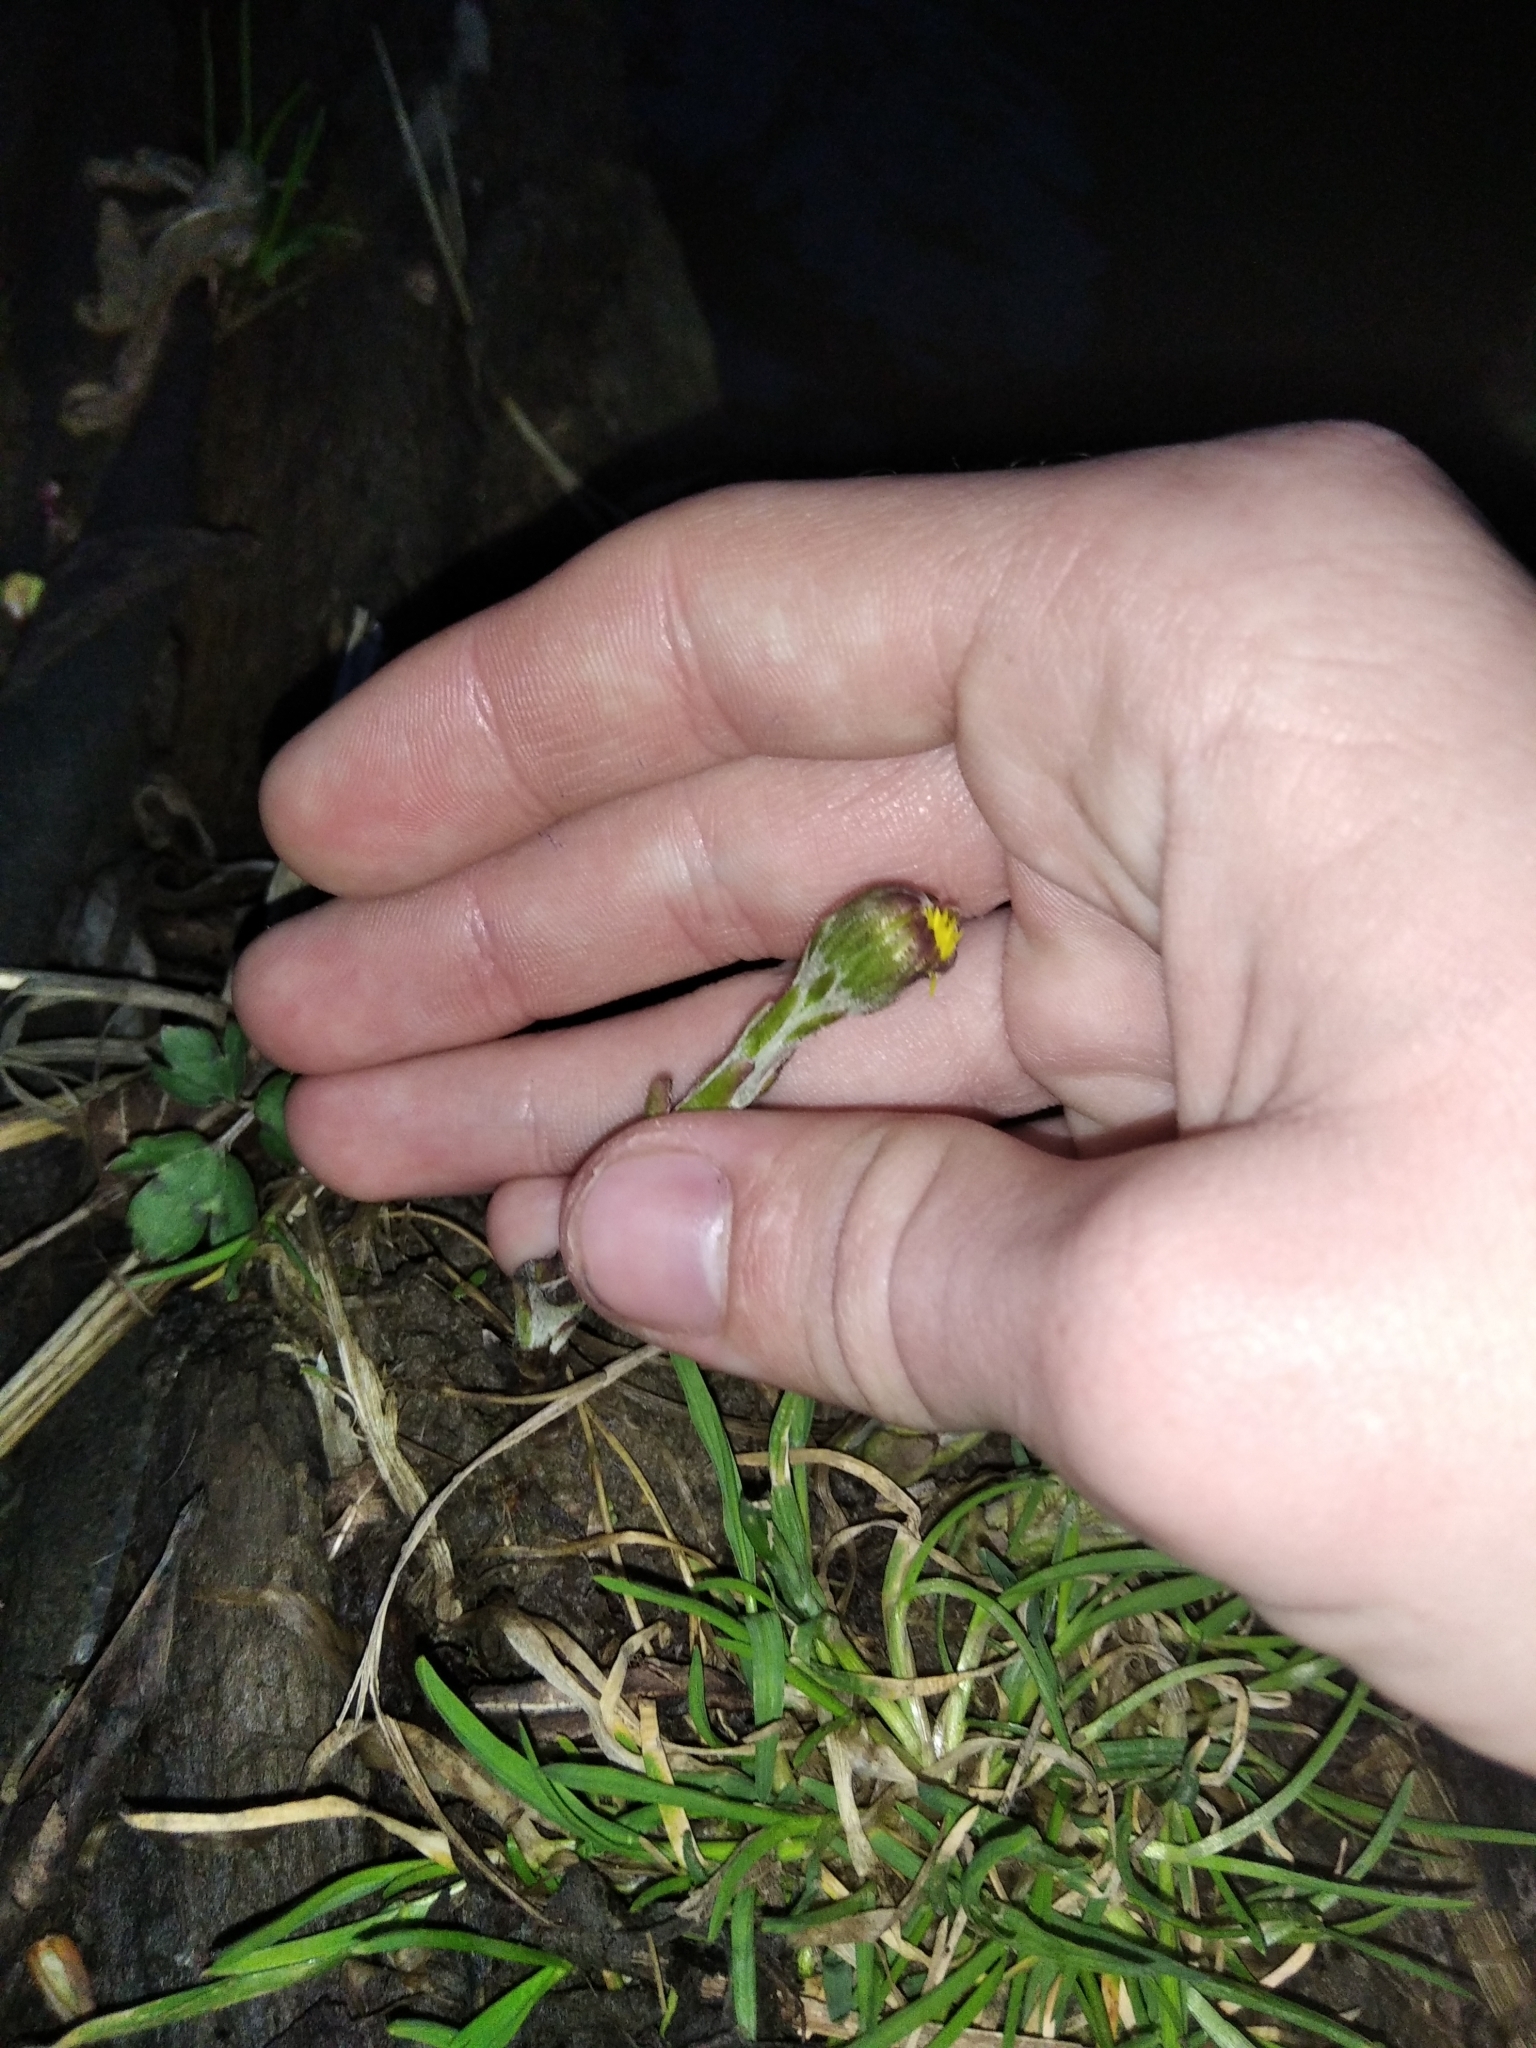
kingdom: Plantae
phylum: Tracheophyta
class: Magnoliopsida
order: Asterales
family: Asteraceae
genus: Tussilago
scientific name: Tussilago farfara
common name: Coltsfoot
